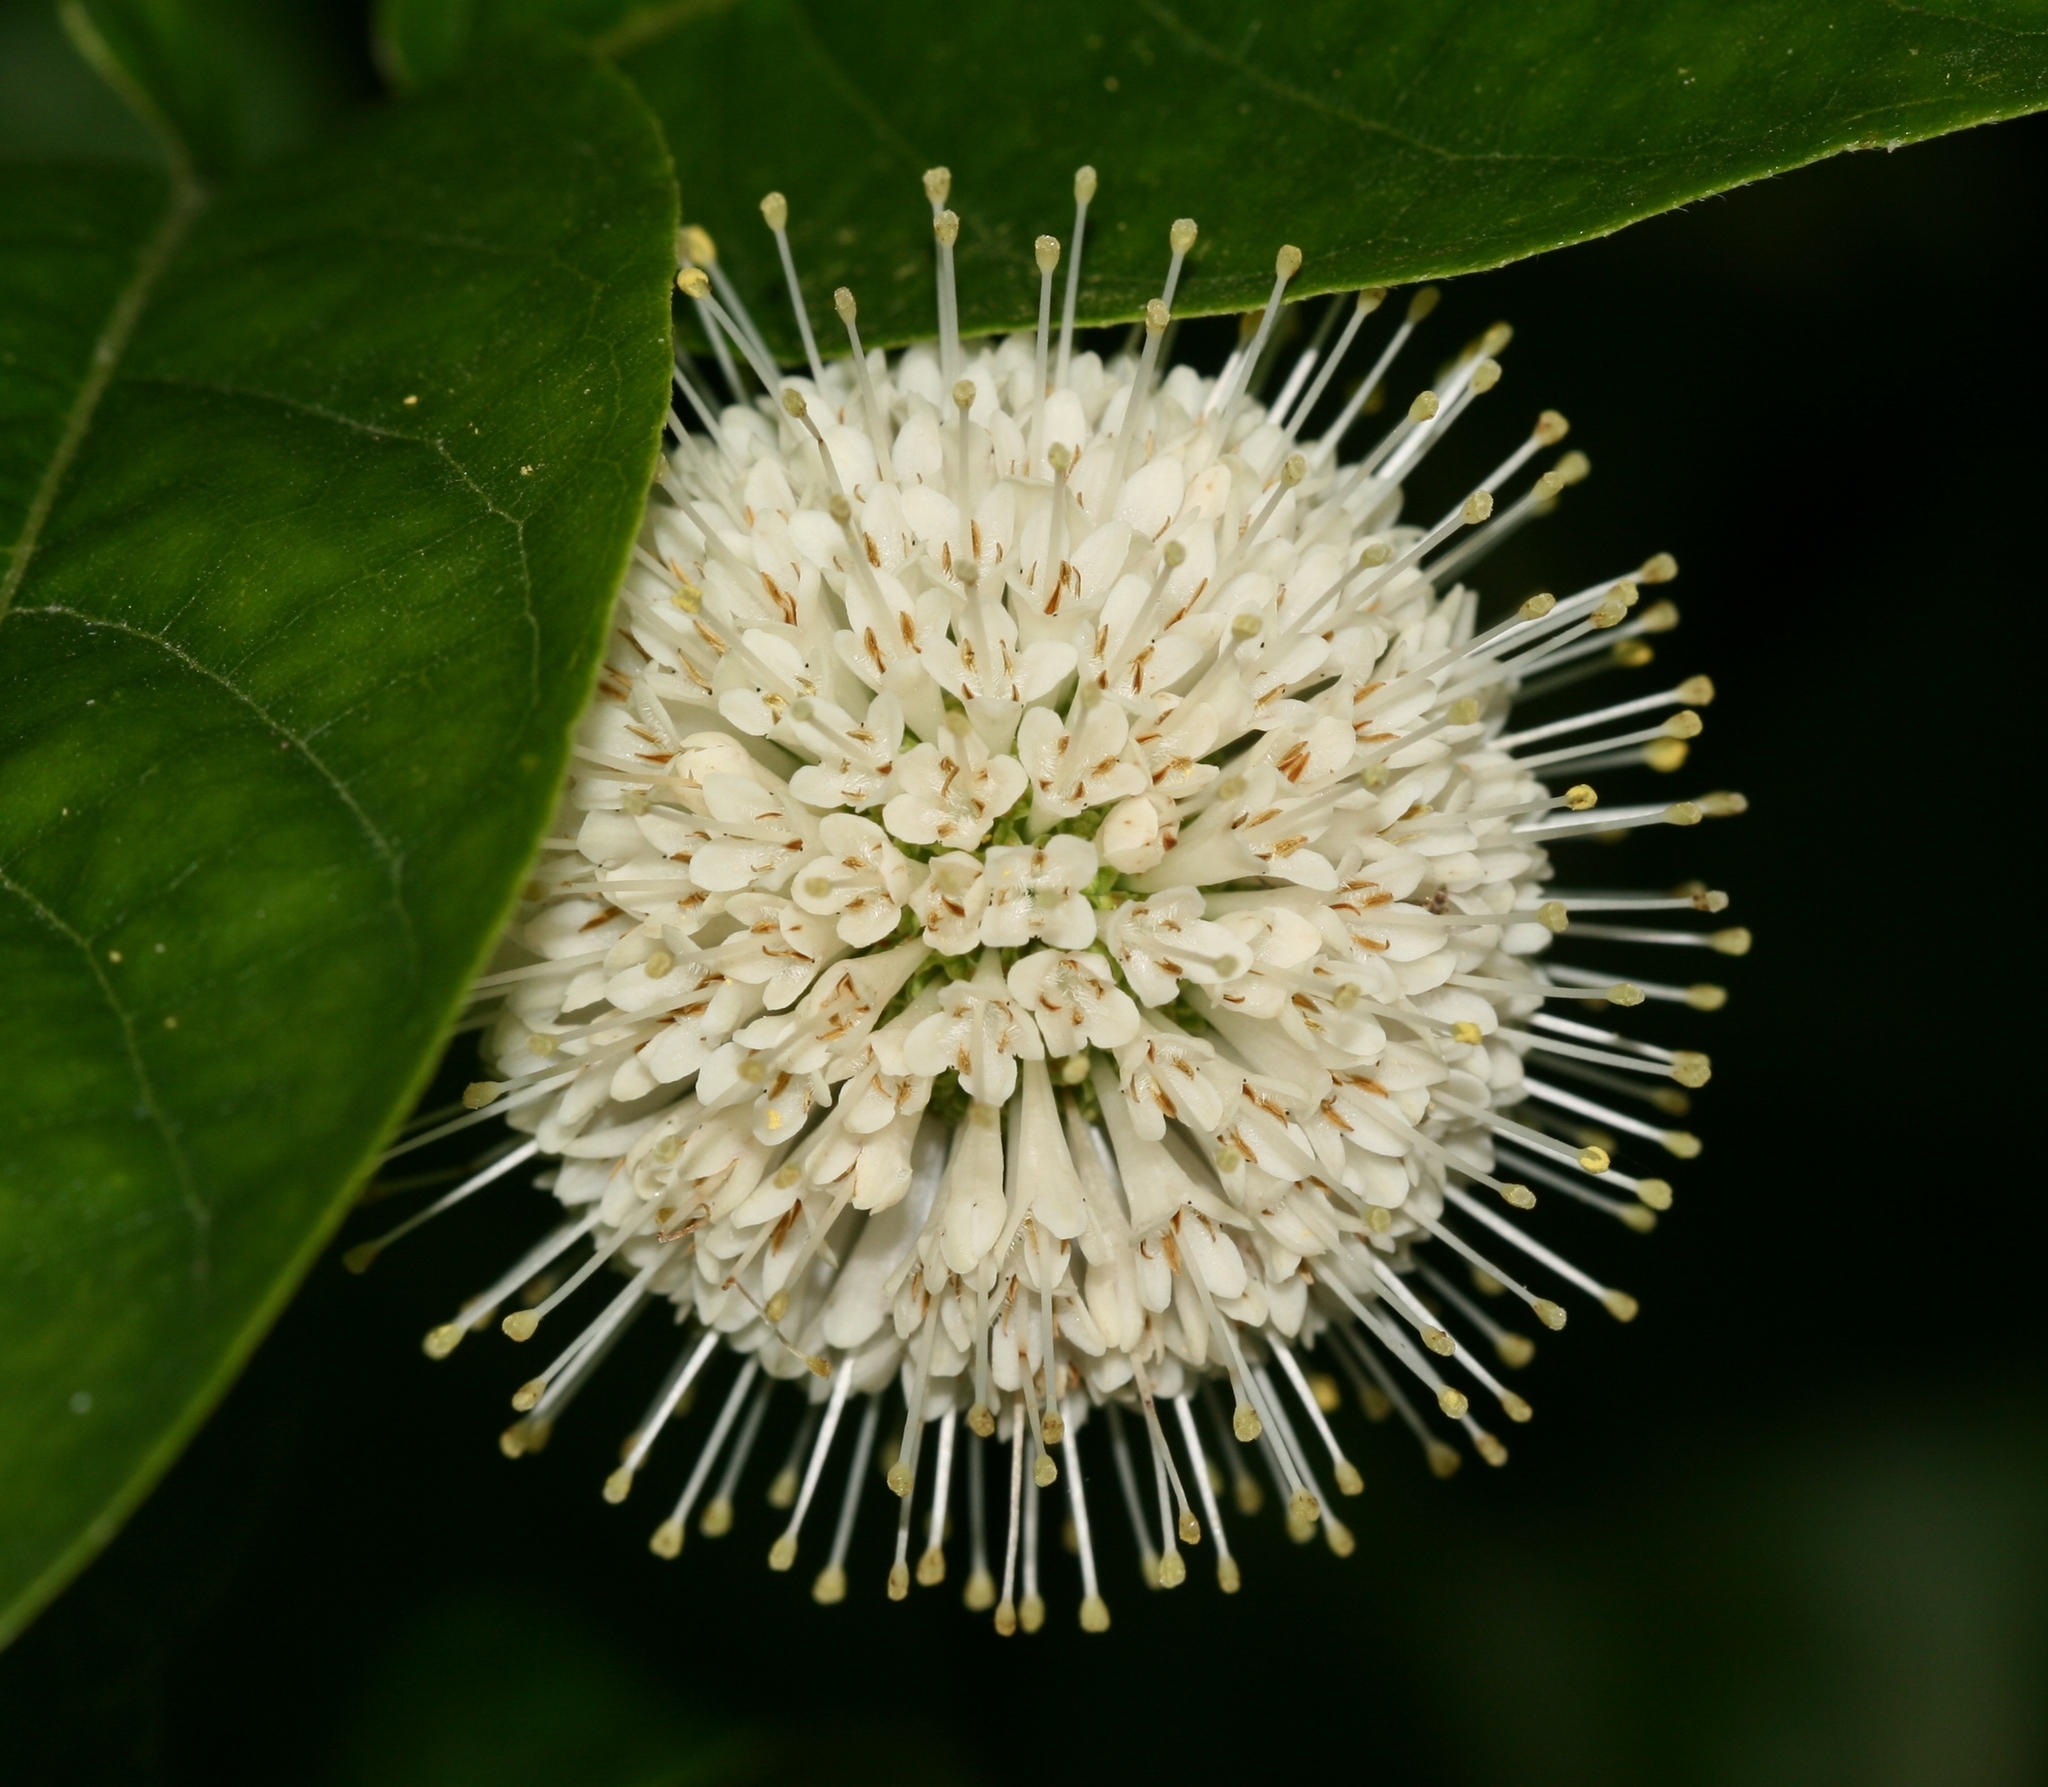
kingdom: Plantae
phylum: Tracheophyta
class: Magnoliopsida
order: Gentianales
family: Rubiaceae
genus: Cephalanthus
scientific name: Cephalanthus occidentalis
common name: Button-willow
